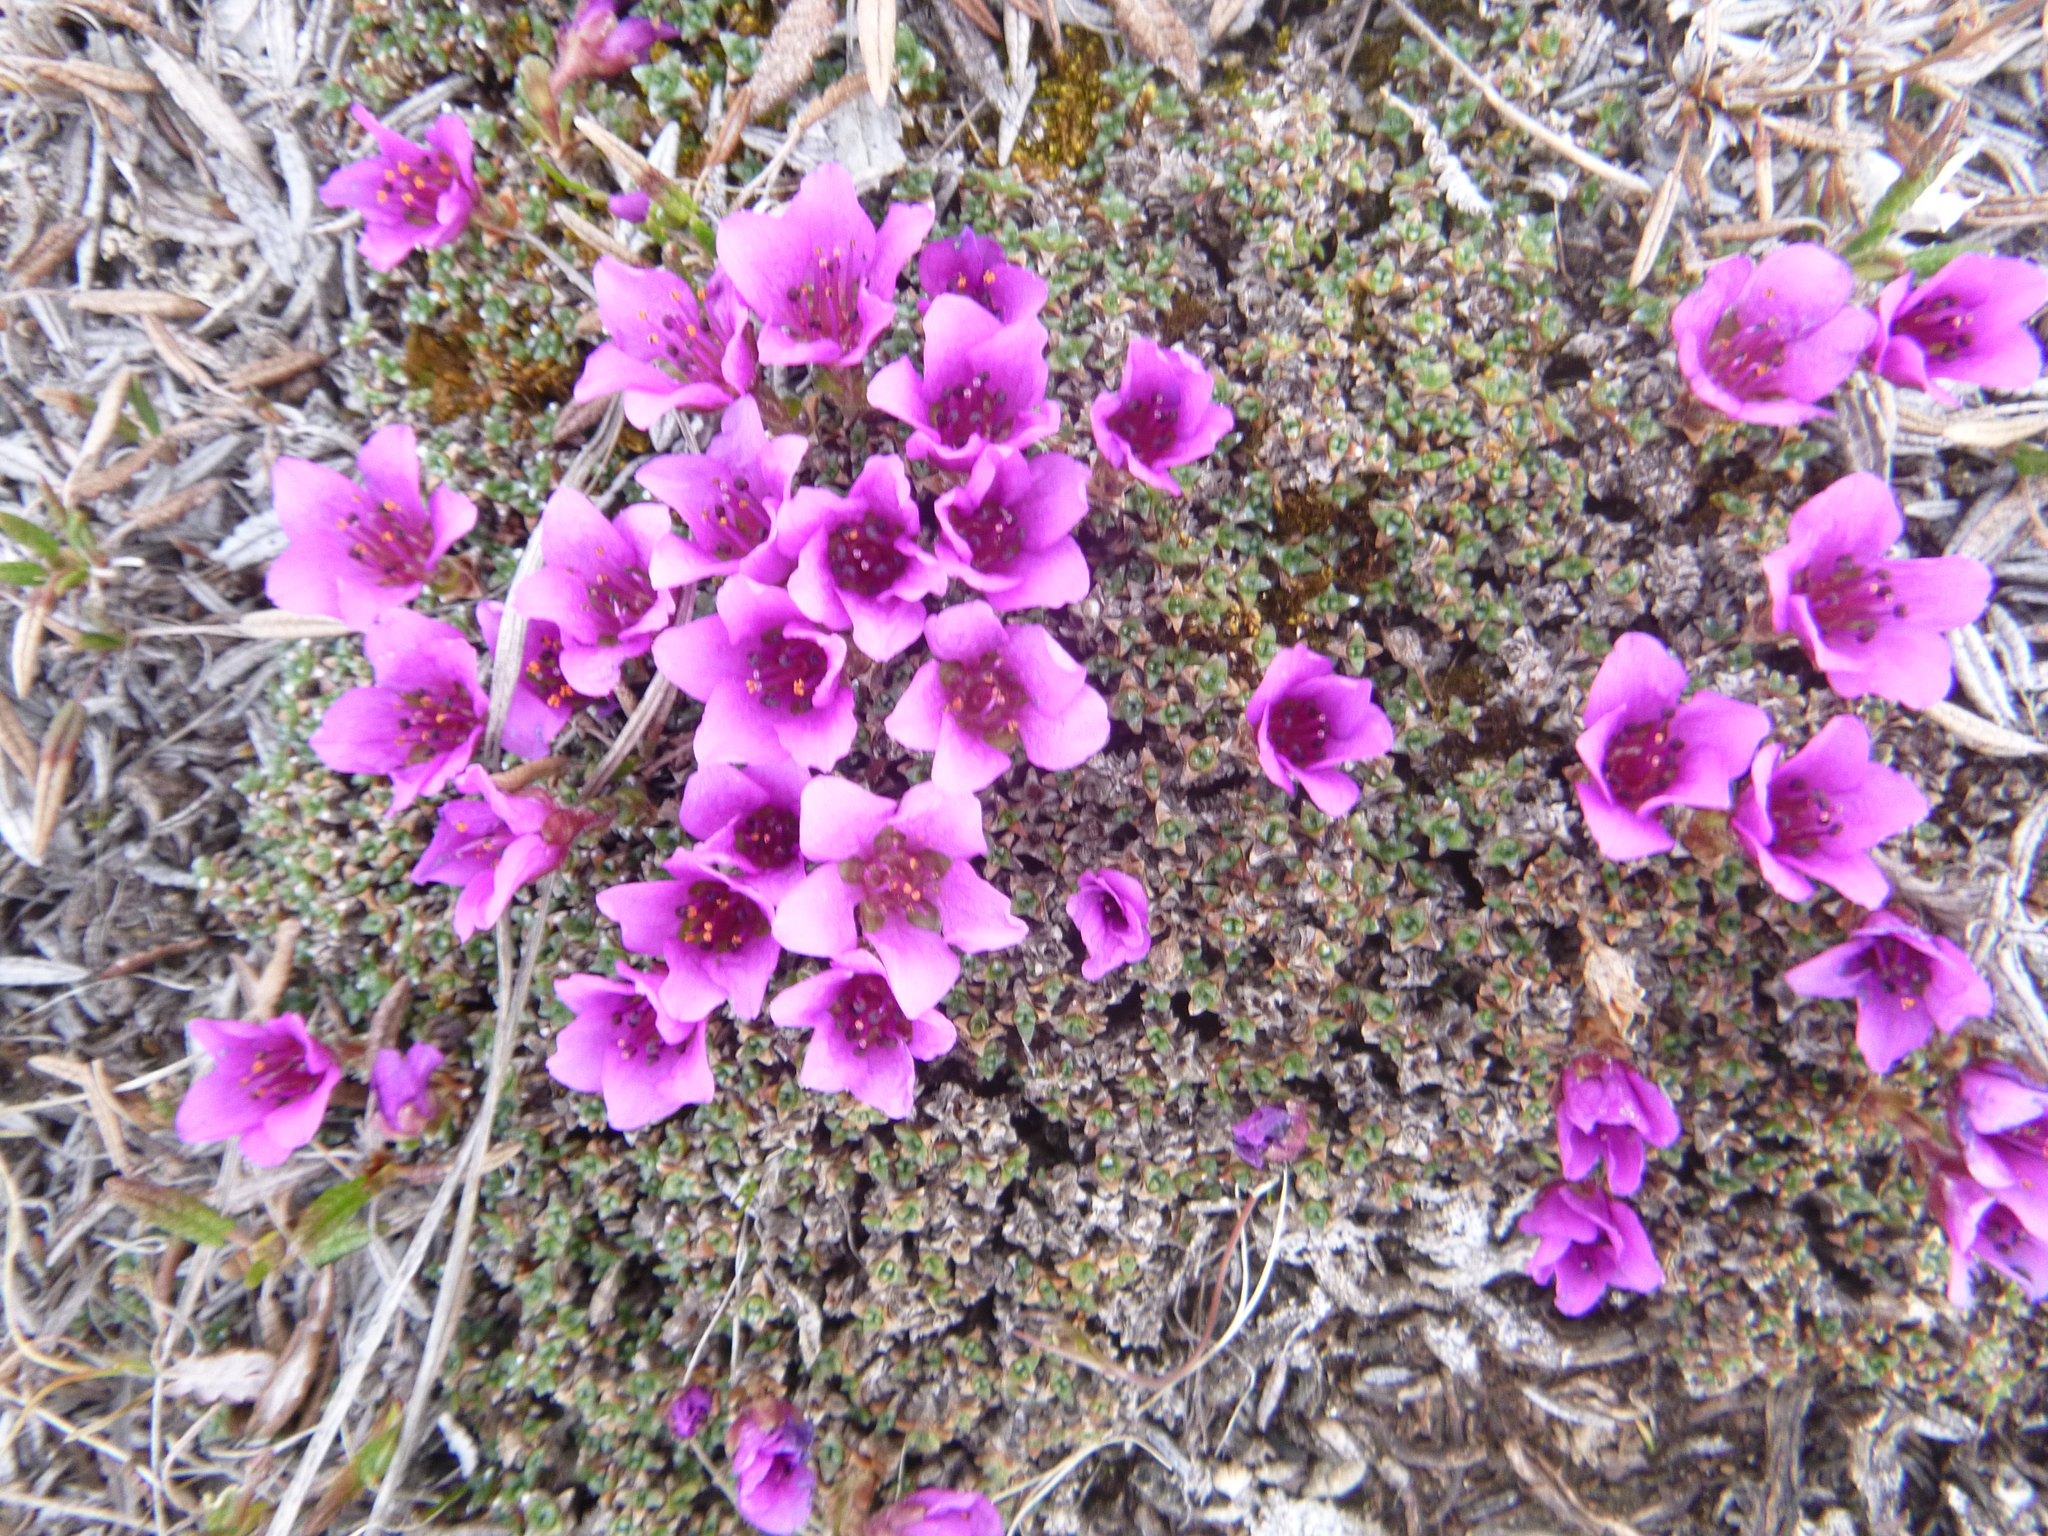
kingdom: Plantae
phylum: Tracheophyta
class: Magnoliopsida
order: Saxifragales
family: Saxifragaceae
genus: Saxifraga
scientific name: Saxifraga oppositifolia
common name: Purple saxifrage
